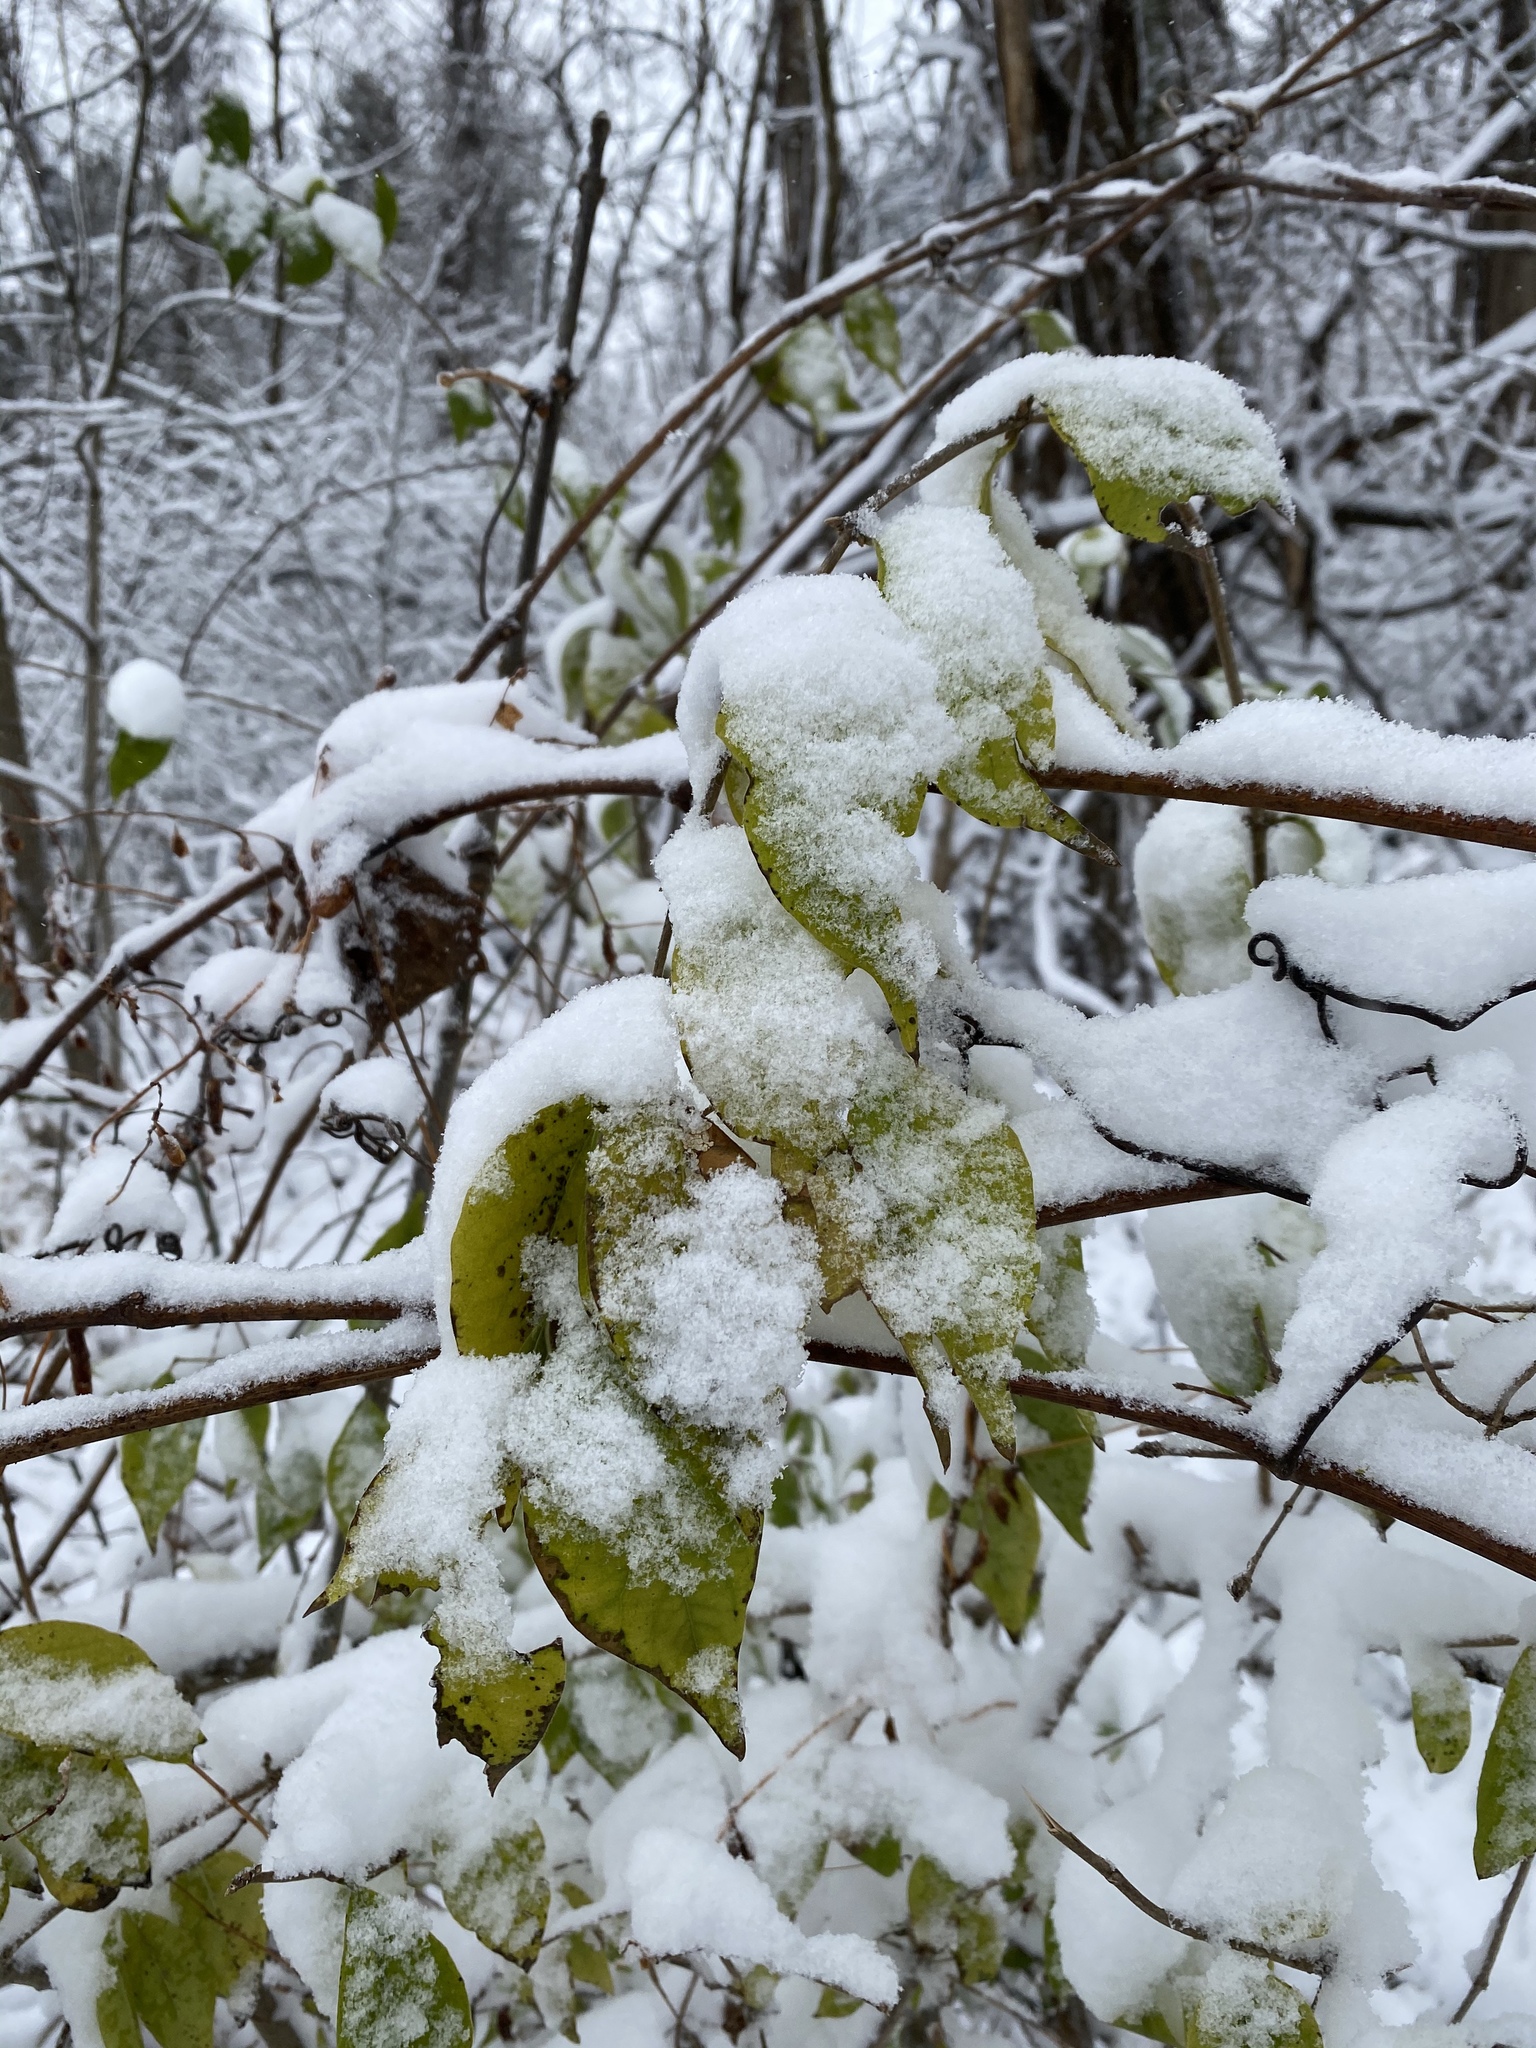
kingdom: Plantae
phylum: Tracheophyta
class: Magnoliopsida
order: Dipsacales
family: Caprifoliaceae
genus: Lonicera
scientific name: Lonicera maackii
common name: Amur honeysuckle
